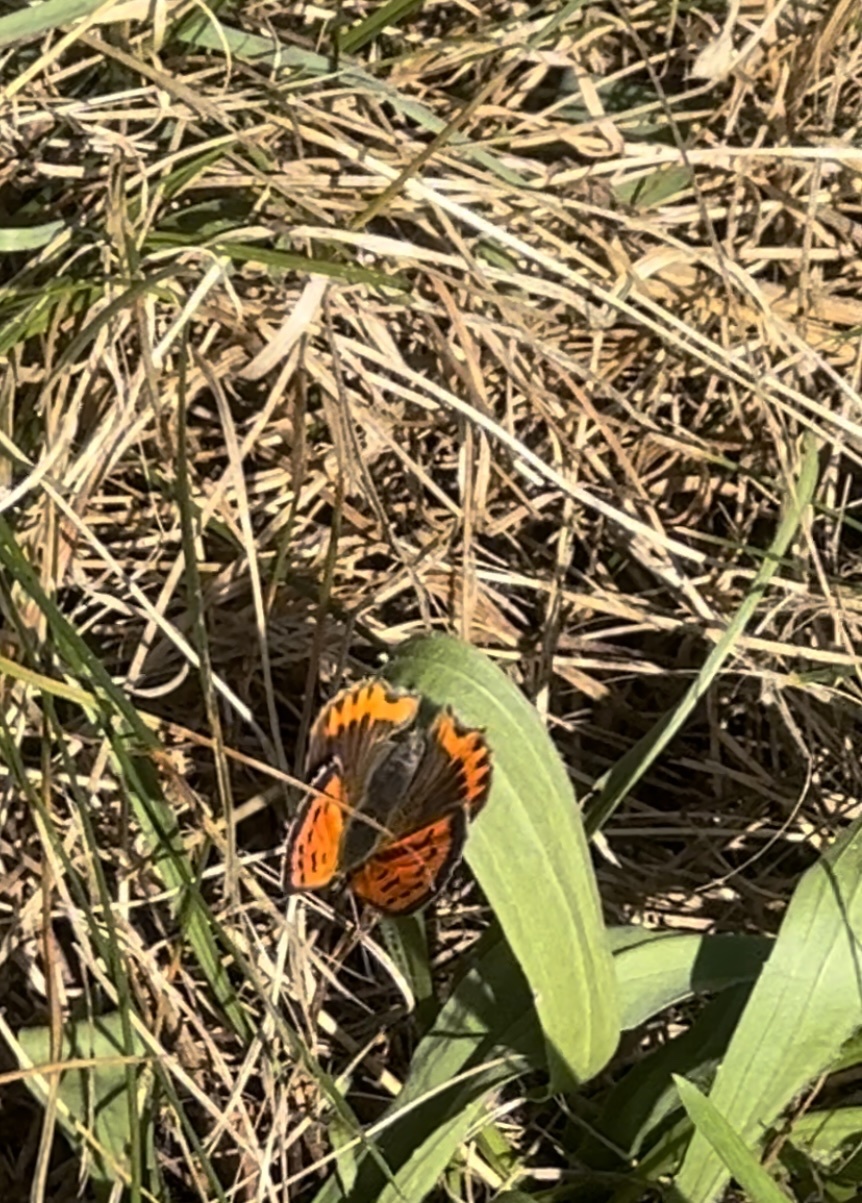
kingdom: Animalia
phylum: Arthropoda
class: Insecta
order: Lepidoptera
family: Lycaenidae
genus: Lycaena
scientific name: Lycaena phlaeas
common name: Small copper
